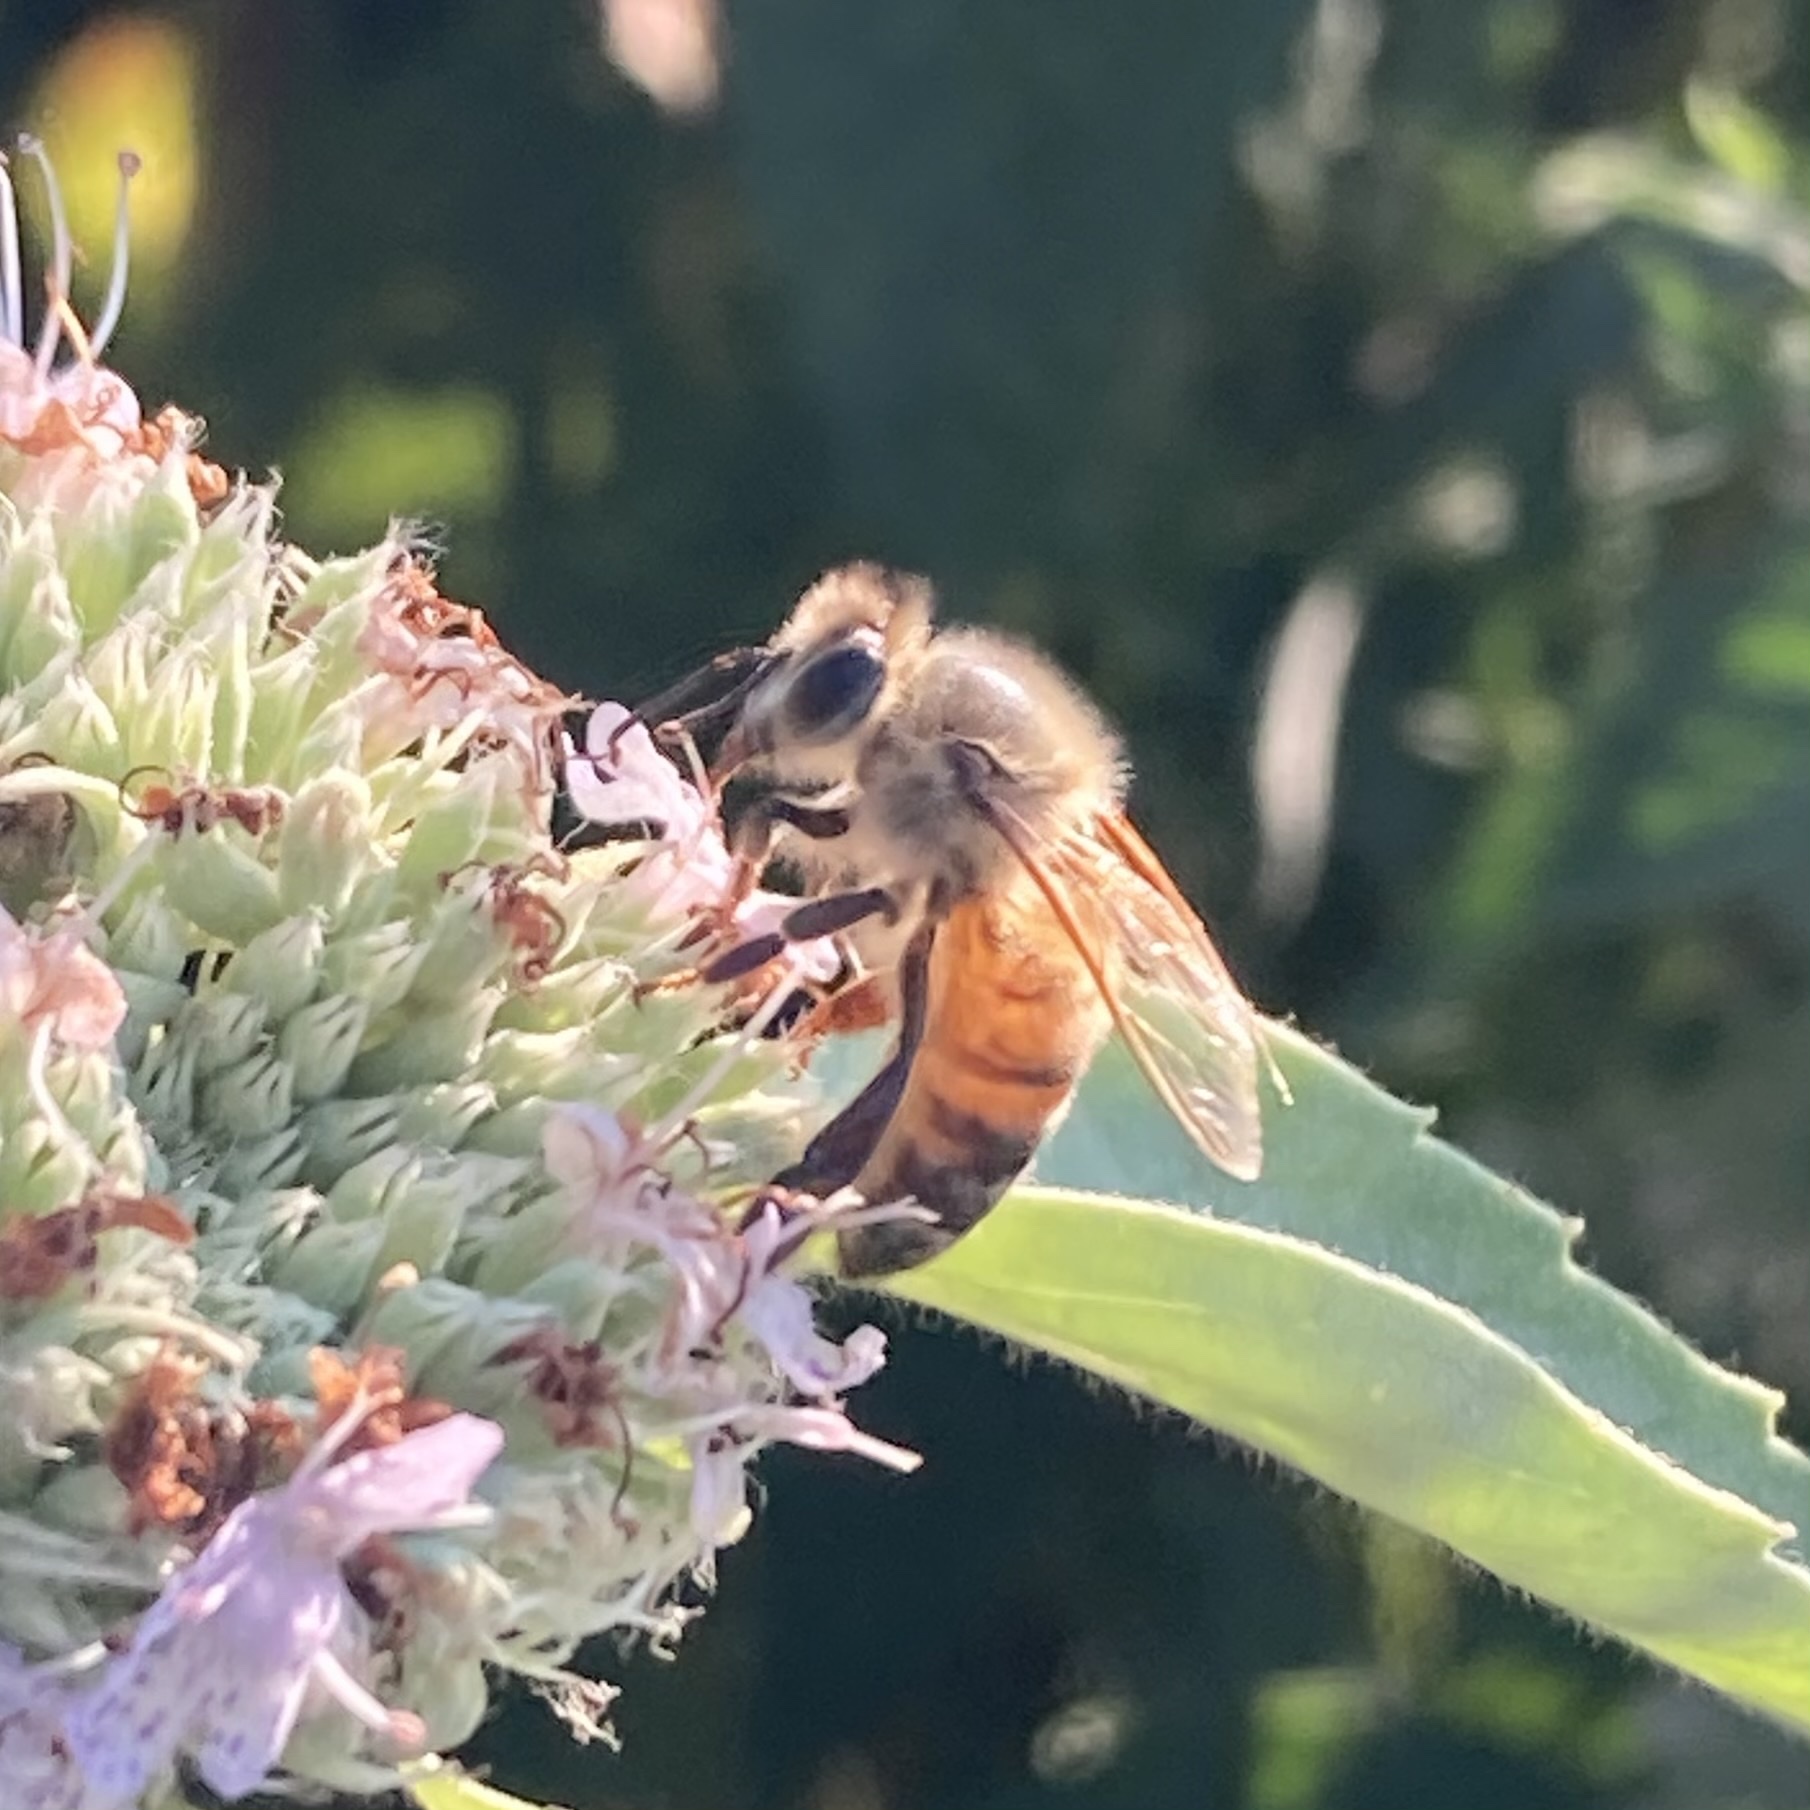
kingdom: Animalia
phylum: Arthropoda
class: Insecta
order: Hymenoptera
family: Apidae
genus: Apis
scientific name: Apis mellifera
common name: Honey bee
